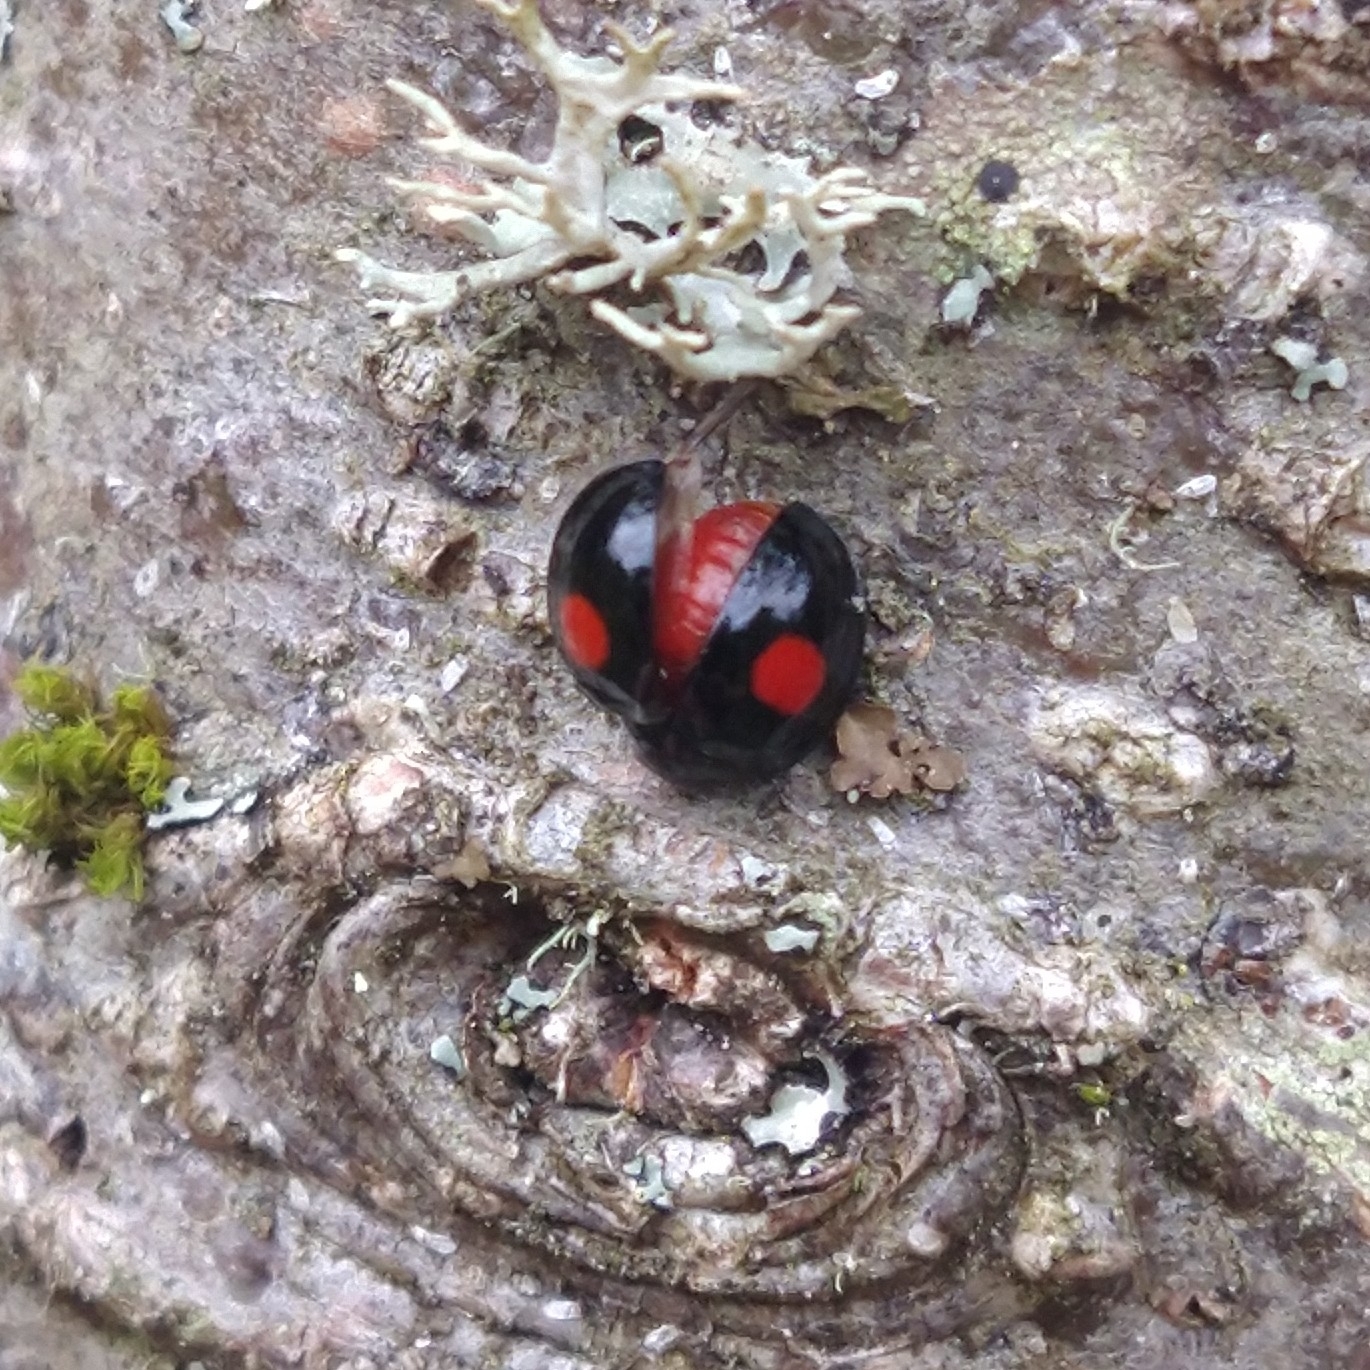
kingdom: Animalia
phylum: Arthropoda
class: Insecta
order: Coleoptera
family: Coccinellidae
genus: Chilocorus
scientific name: Chilocorus renipustulatus
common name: Kidney-spot ladybird
